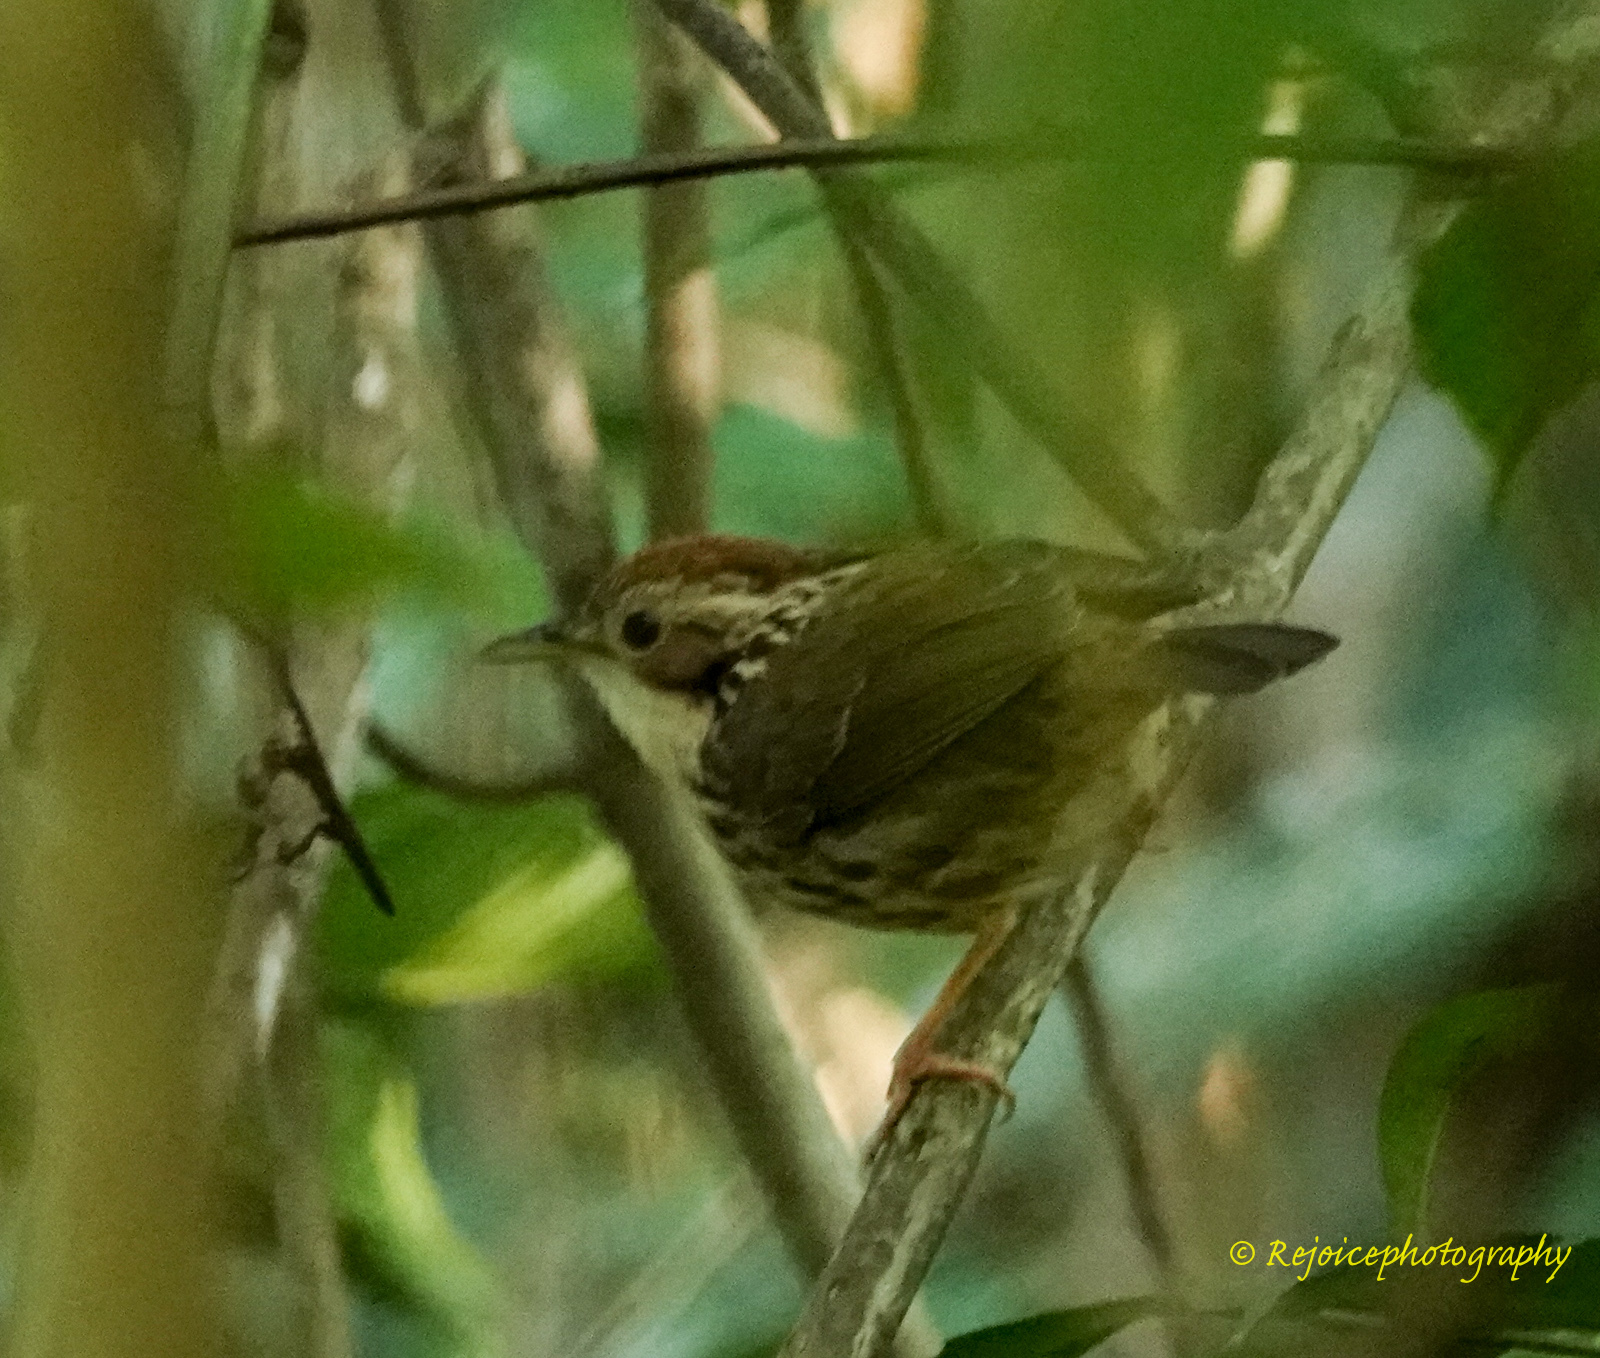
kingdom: Animalia
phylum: Chordata
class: Aves
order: Passeriformes
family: Pellorneidae
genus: Pellorneum
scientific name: Pellorneum ruficeps
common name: Puff-throated babbler
